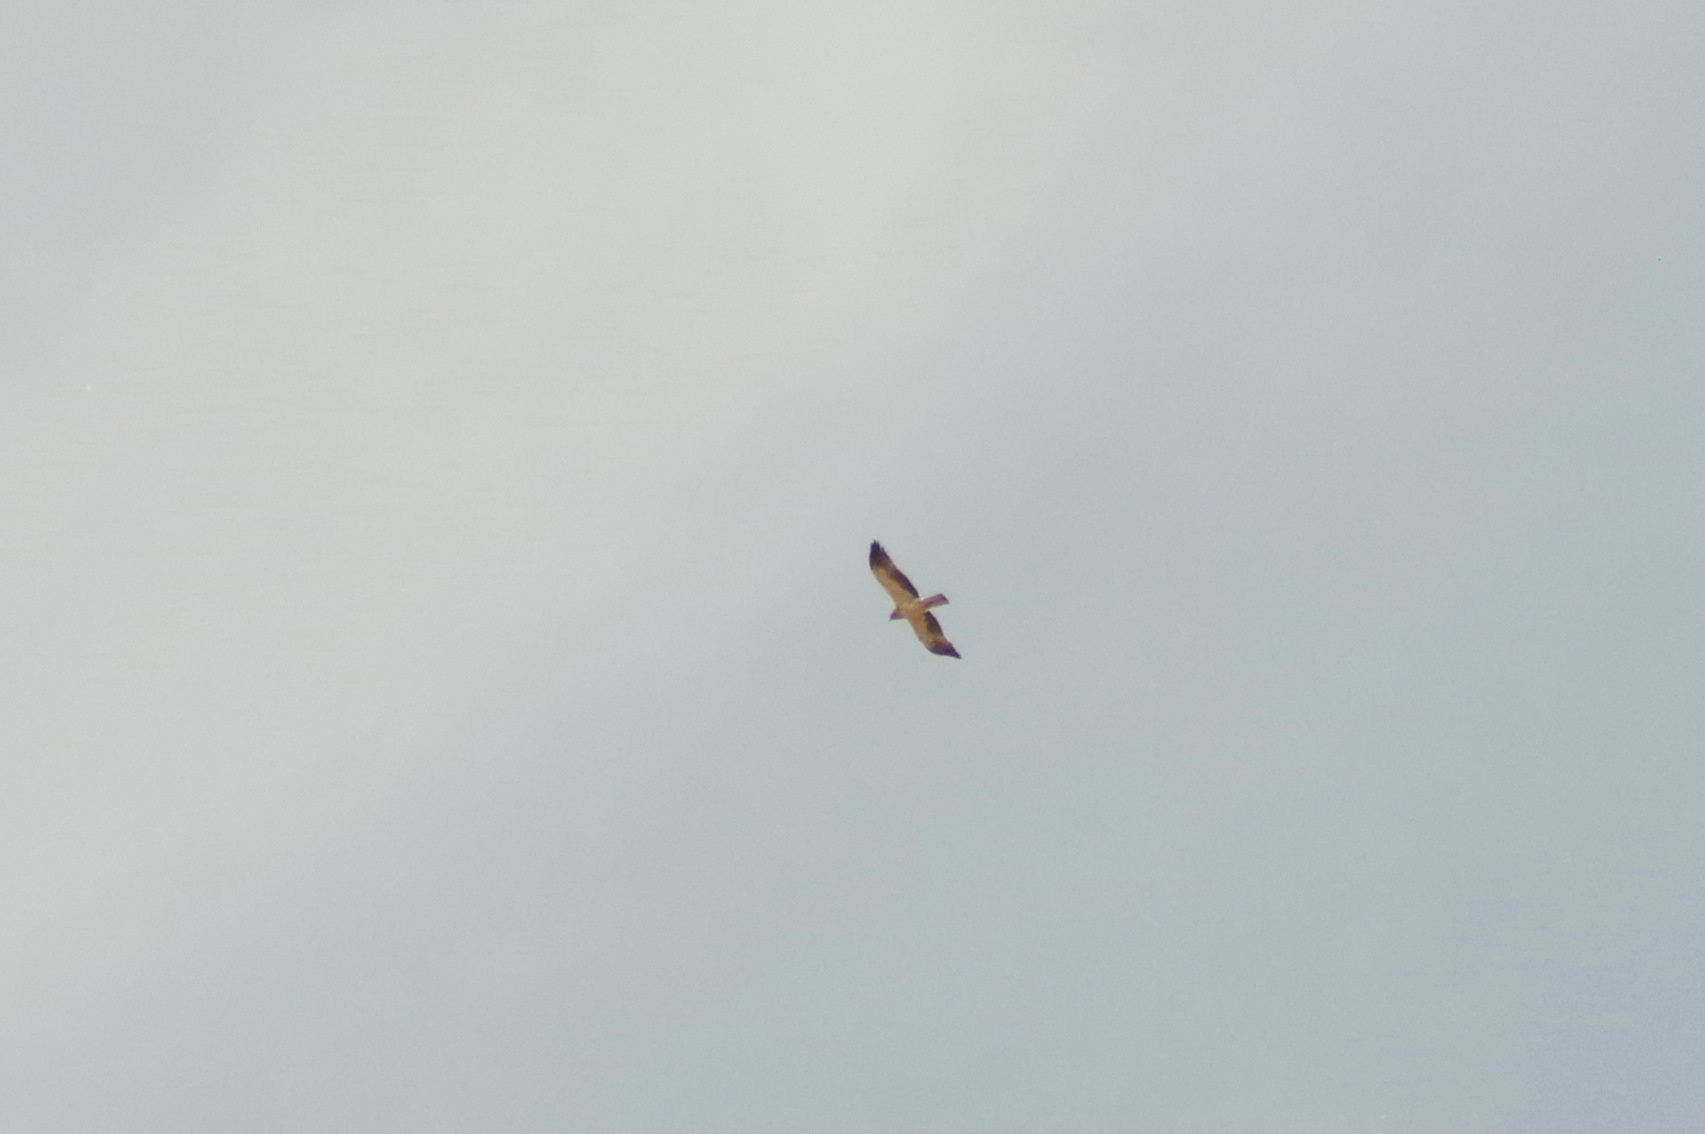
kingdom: Animalia
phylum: Chordata
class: Aves
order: Accipitriformes
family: Accipitridae
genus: Hieraaetus
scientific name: Hieraaetus pennatus
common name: Booted eagle
